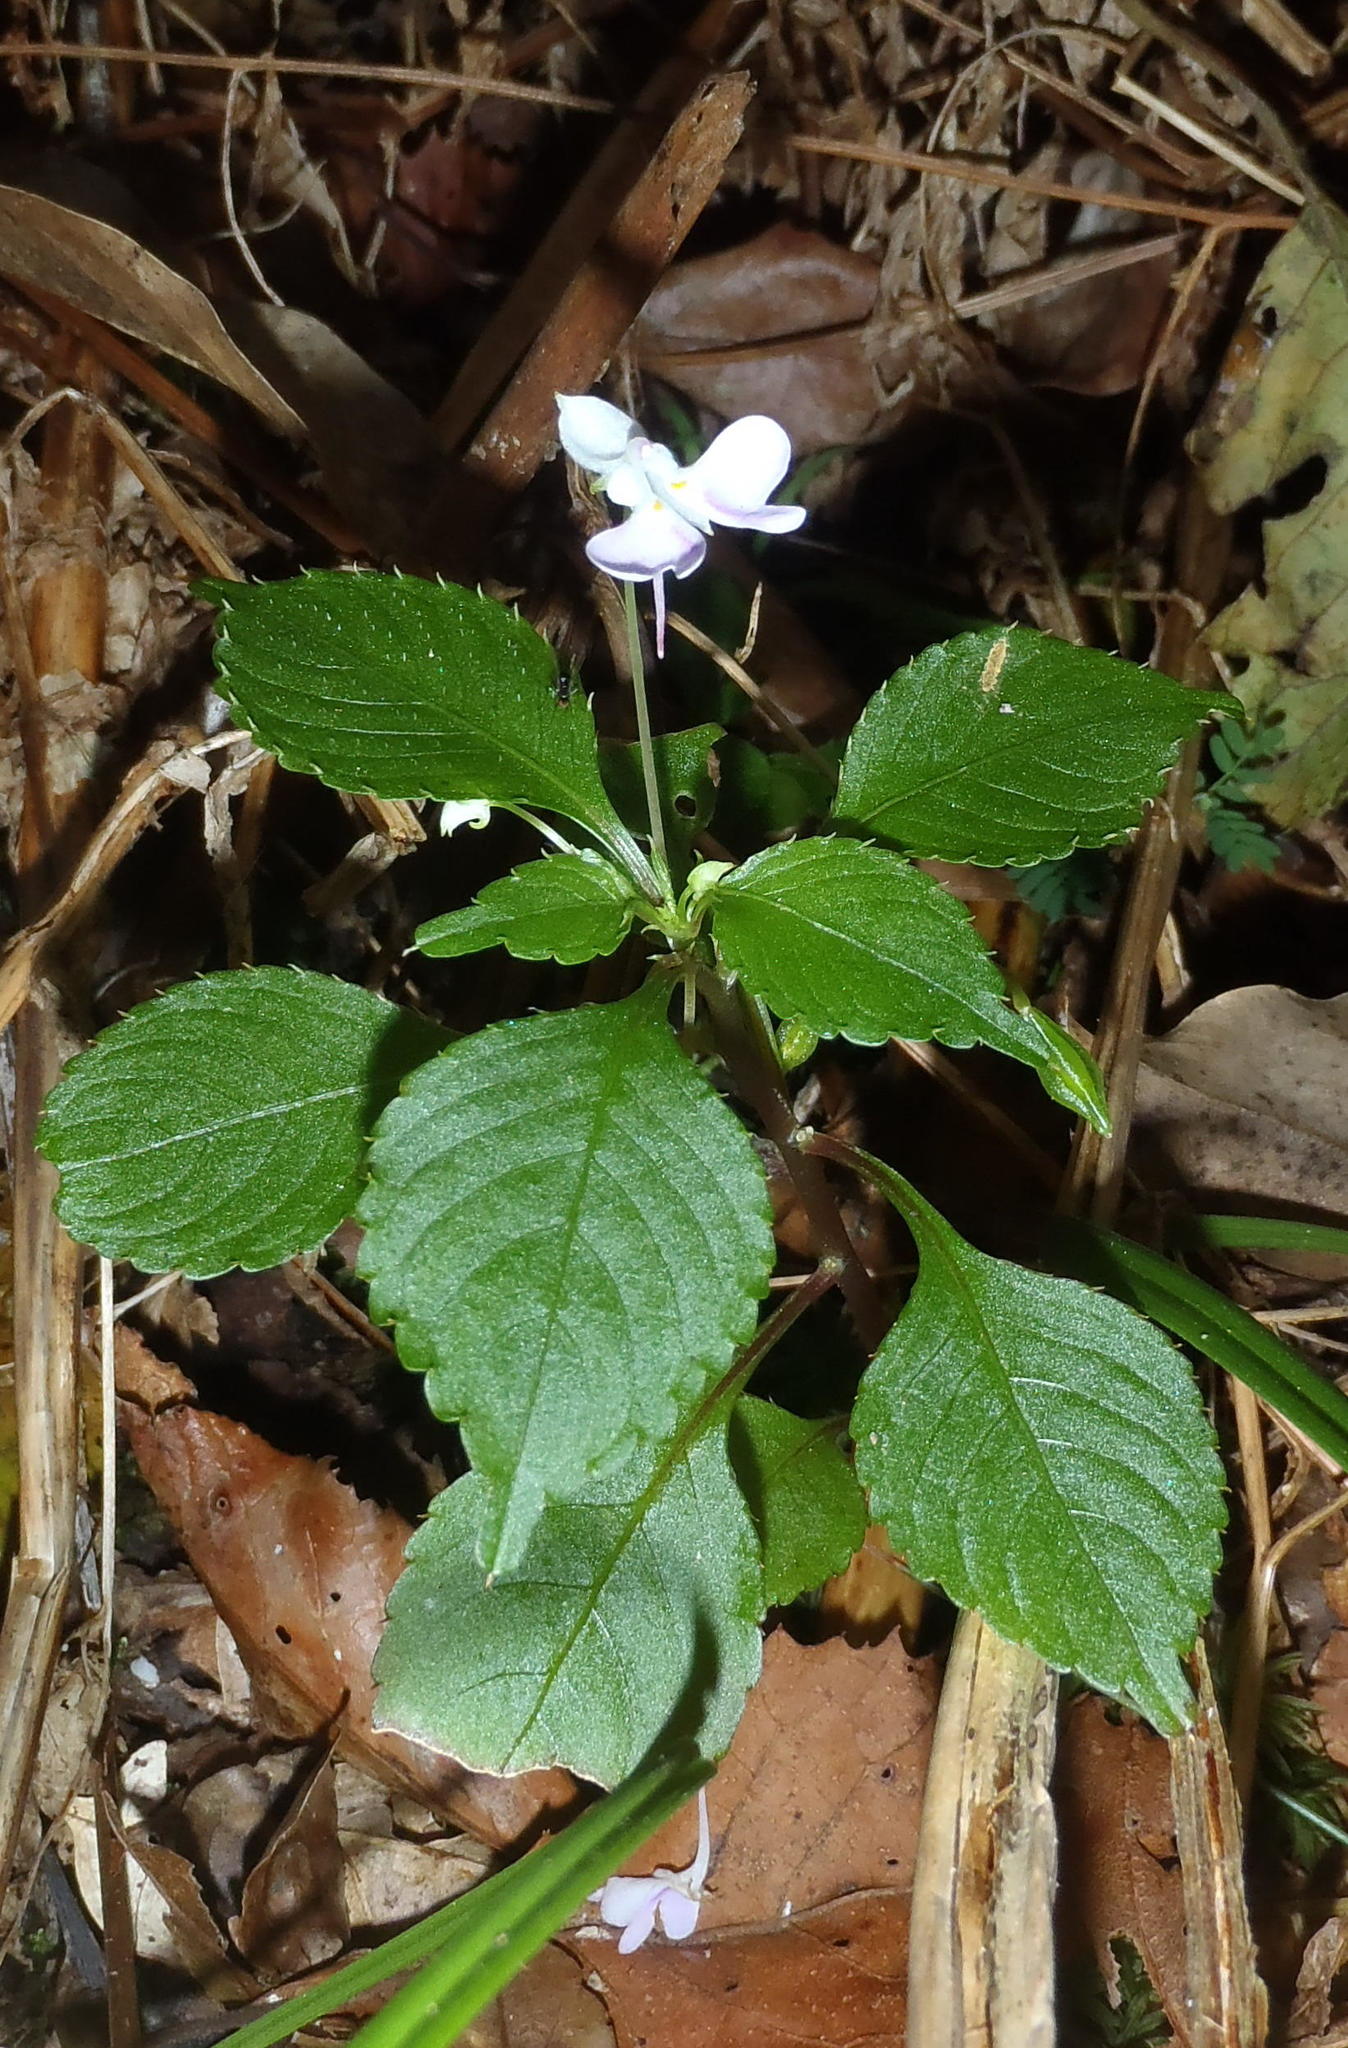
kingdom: Plantae
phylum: Tracheophyta
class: Magnoliopsida
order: Ericales
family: Balsaminaceae
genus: Impatiens
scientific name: Impatiens hochstetteri
